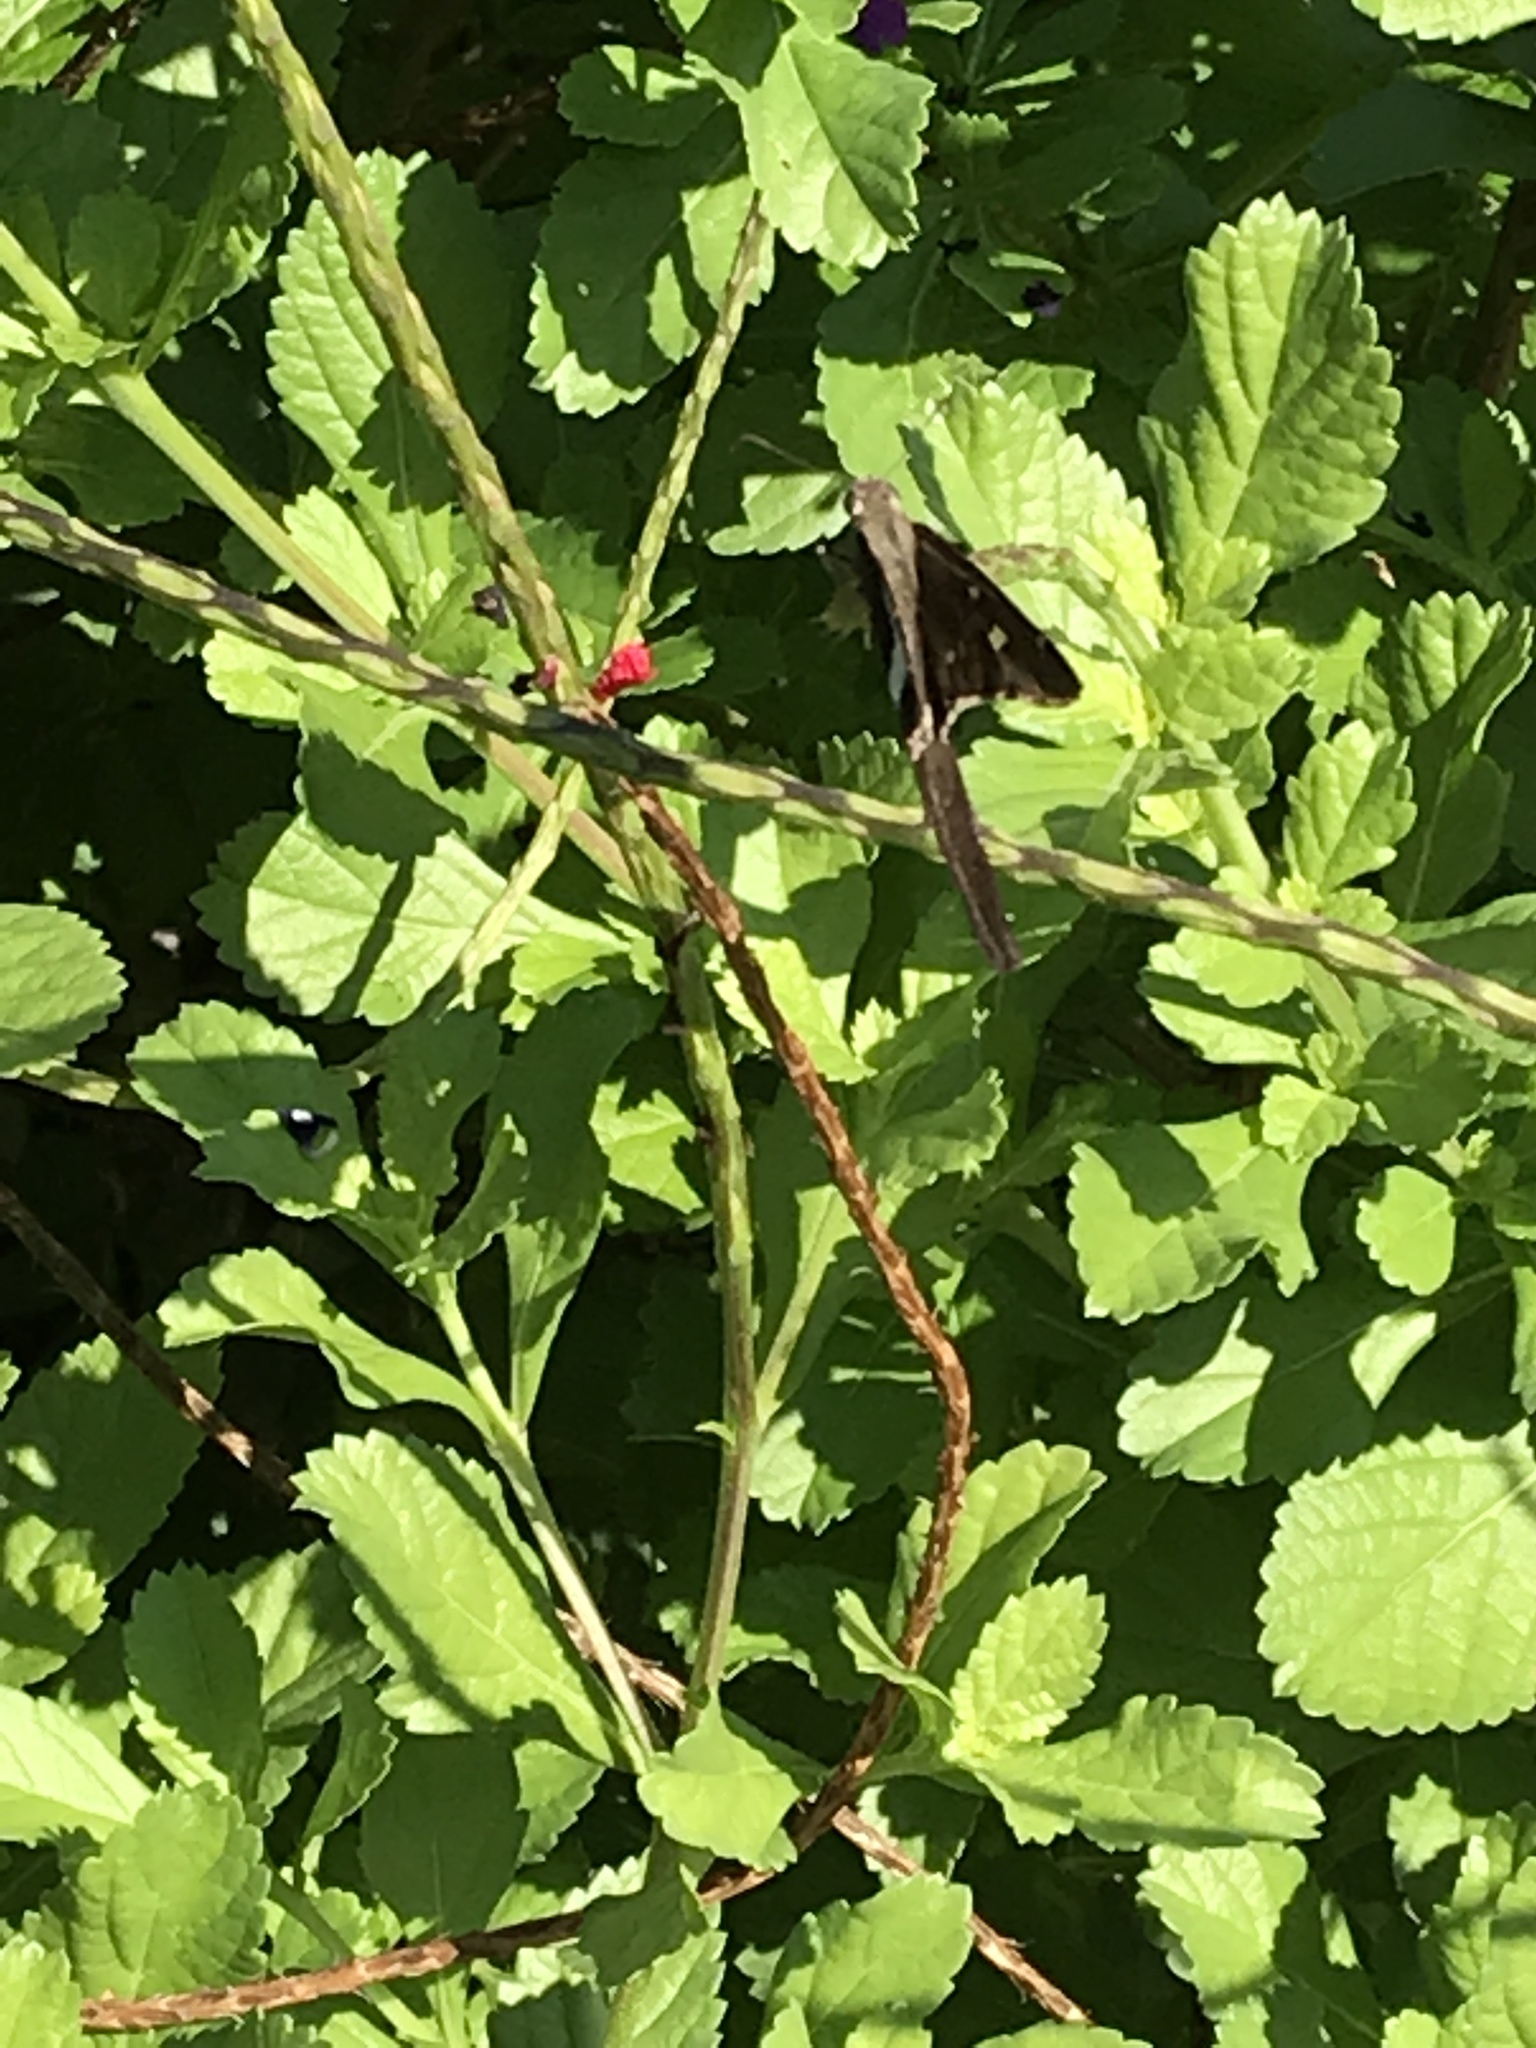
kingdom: Animalia
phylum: Arthropoda
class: Insecta
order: Lepidoptera
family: Hesperiidae
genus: Chioides
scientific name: Chioides catillus
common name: Silverbanded skipper
